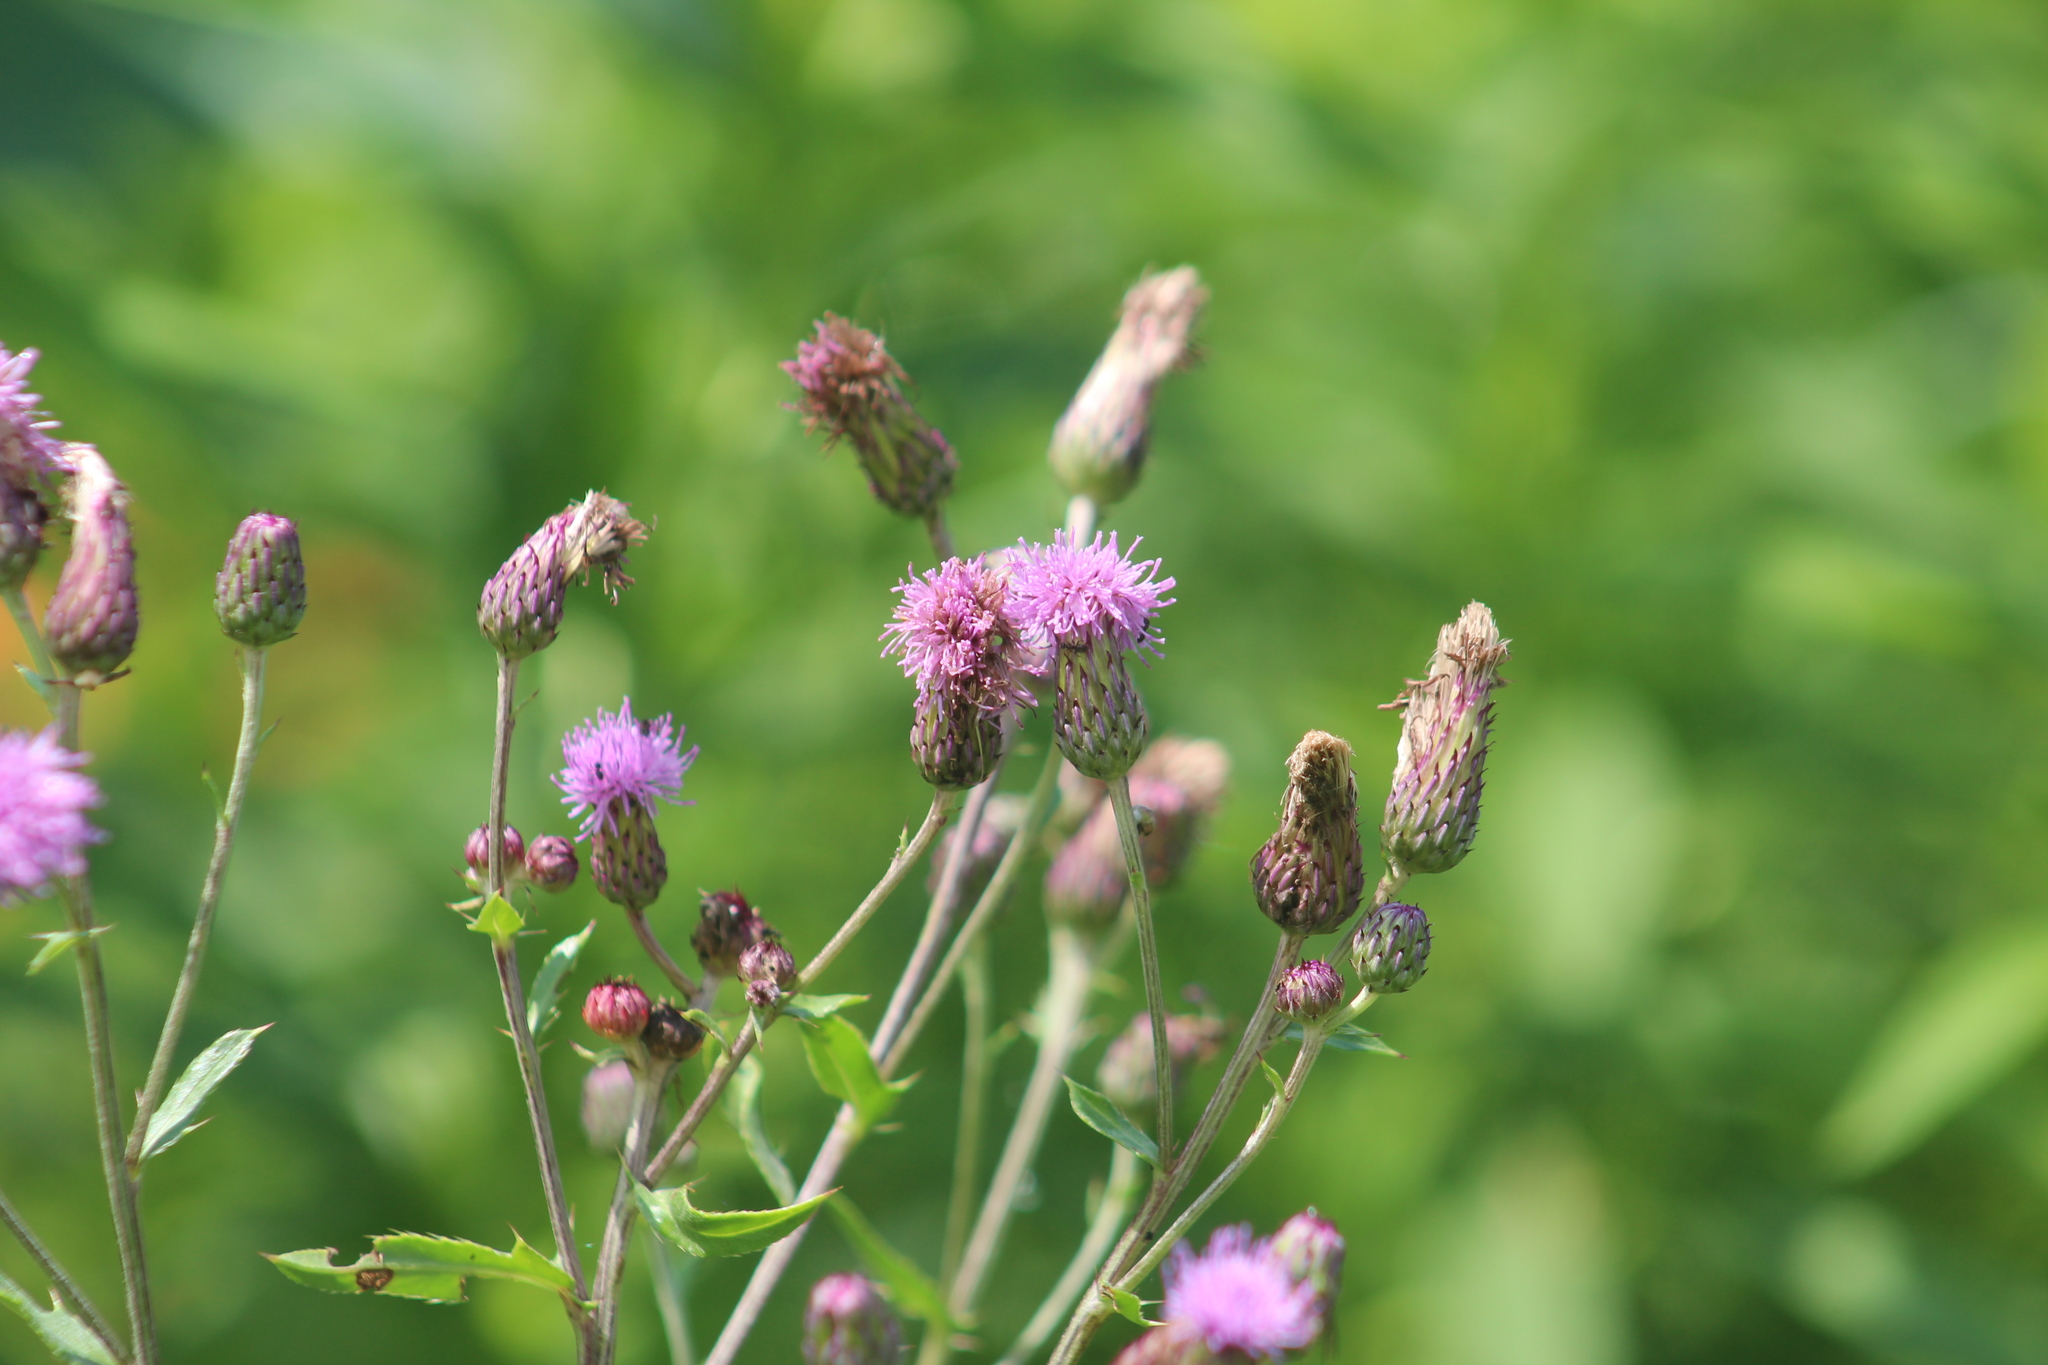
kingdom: Plantae
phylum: Tracheophyta
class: Magnoliopsida
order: Asterales
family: Asteraceae
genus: Cirsium
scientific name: Cirsium arvense
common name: Creeping thistle
